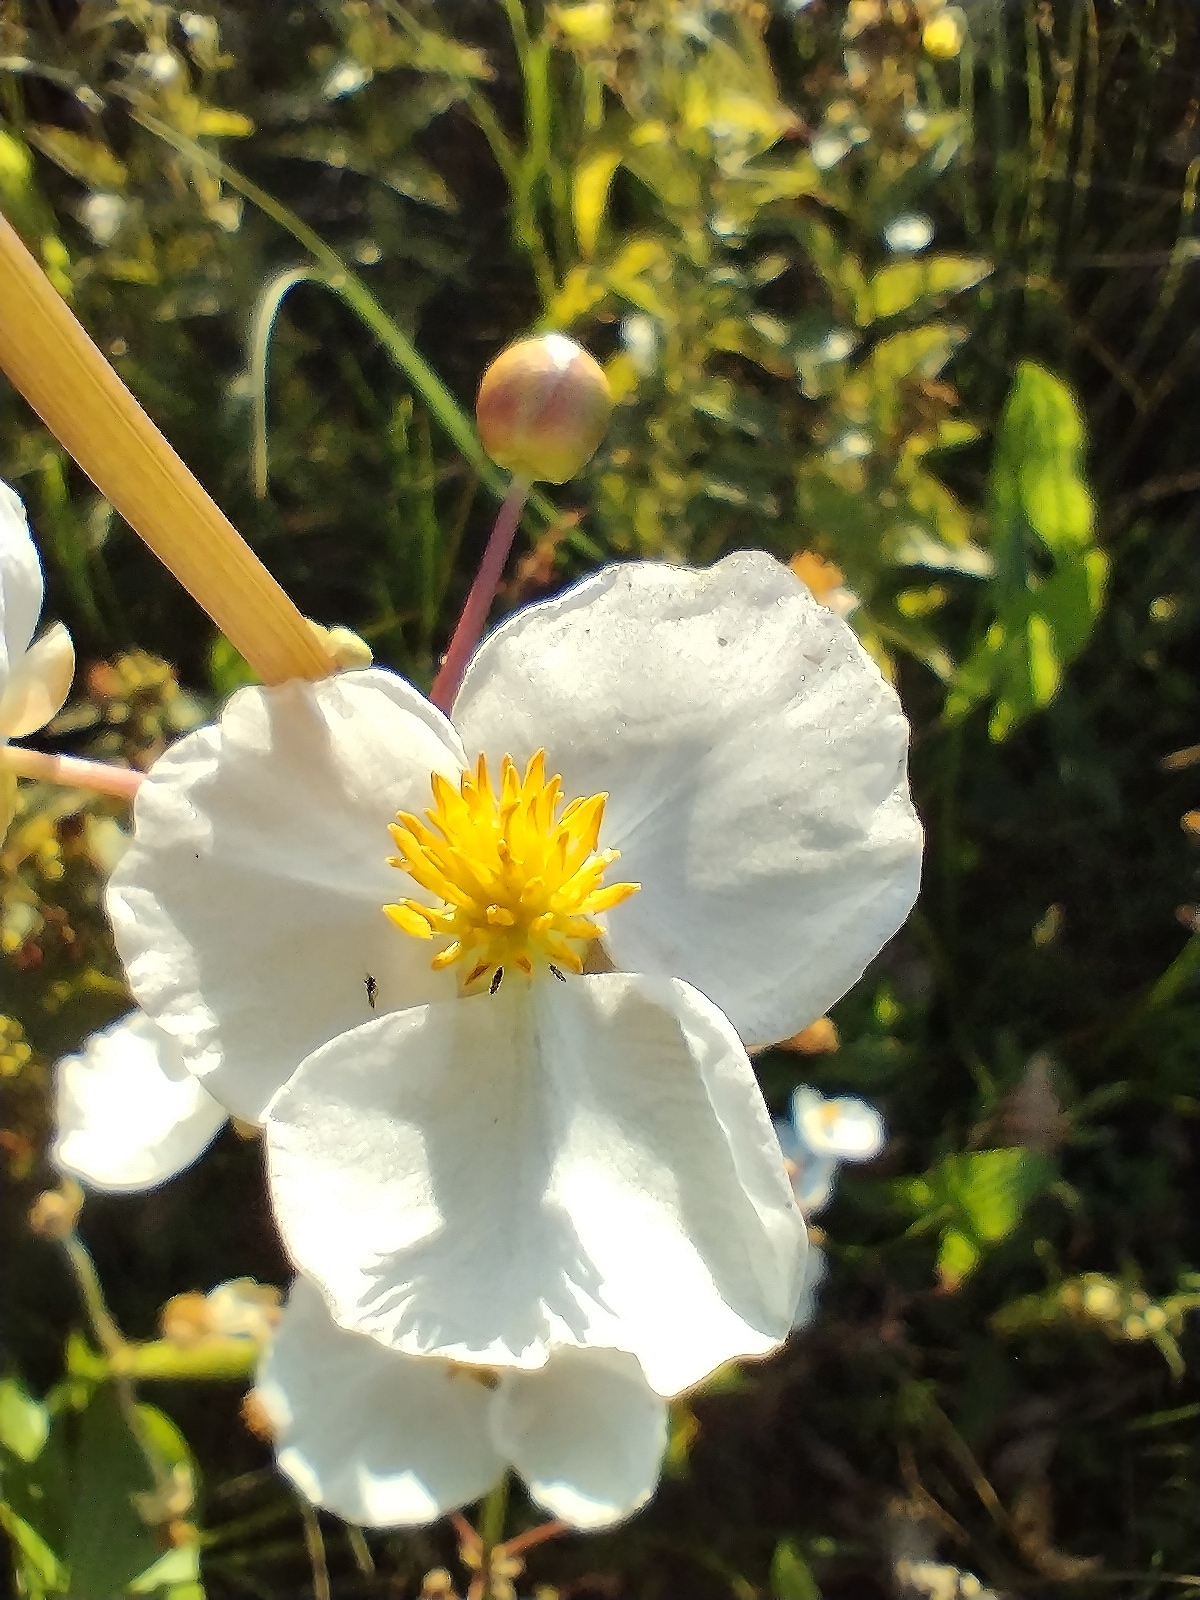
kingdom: Plantae
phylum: Tracheophyta
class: Liliopsida
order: Alismatales
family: Alismataceae
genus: Sagittaria
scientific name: Sagittaria latifolia
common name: Duck-potato
